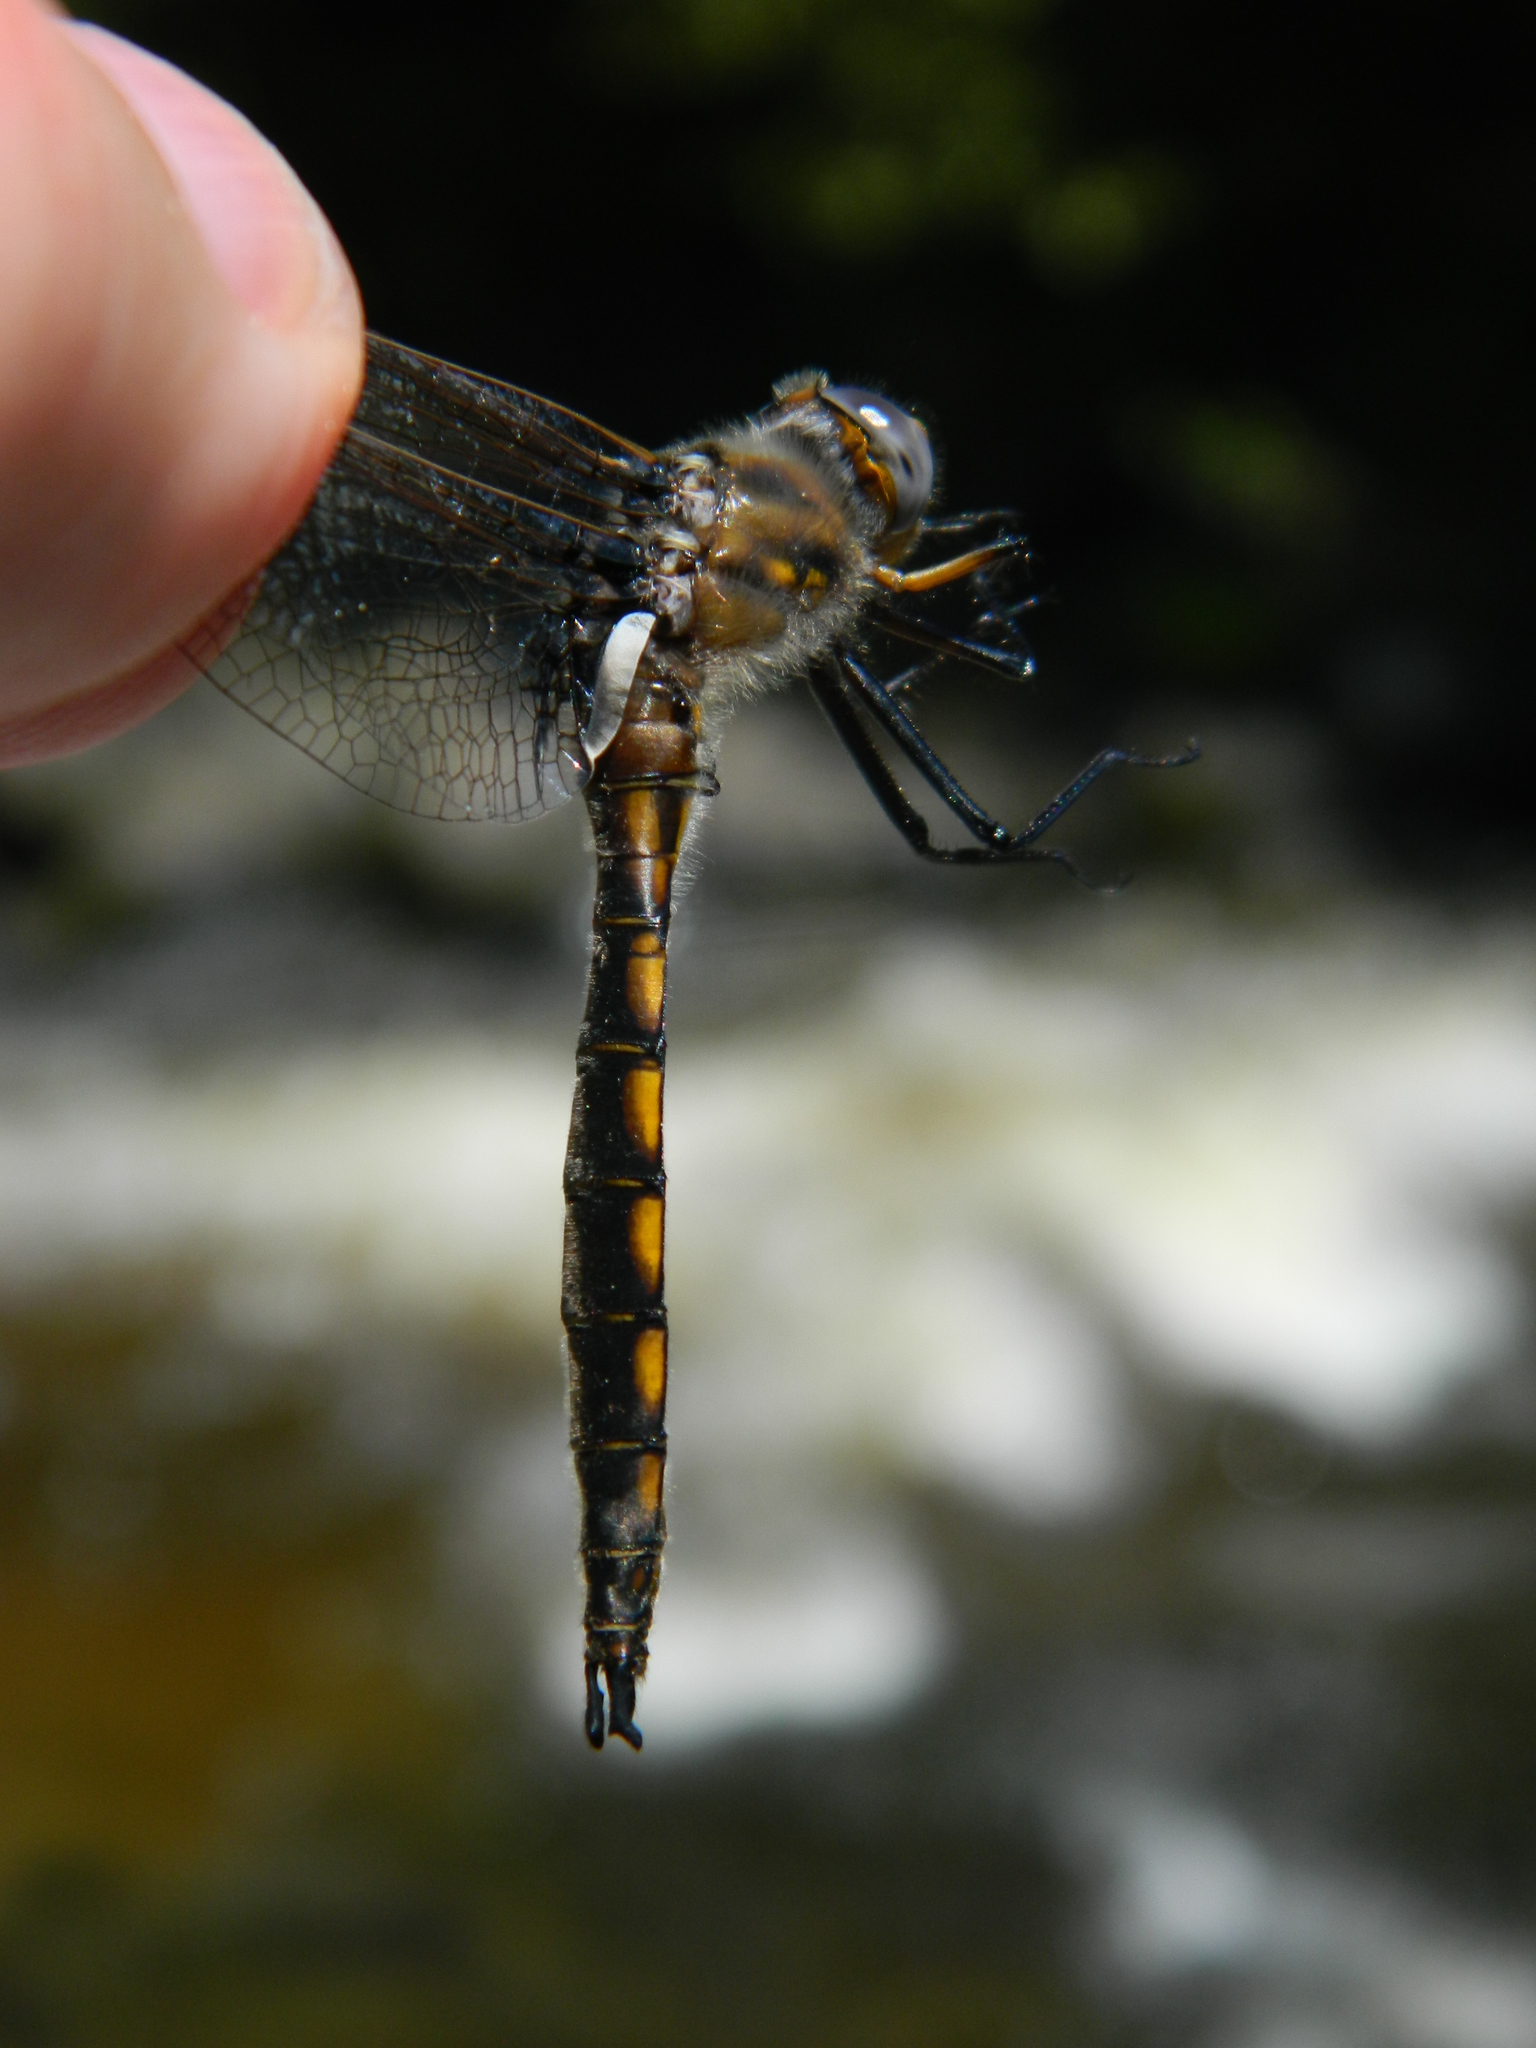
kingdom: Animalia
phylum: Arthropoda
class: Insecta
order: Odonata
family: Corduliidae
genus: Epitheca
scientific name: Epitheca canis
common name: Beaverpond baskettail
